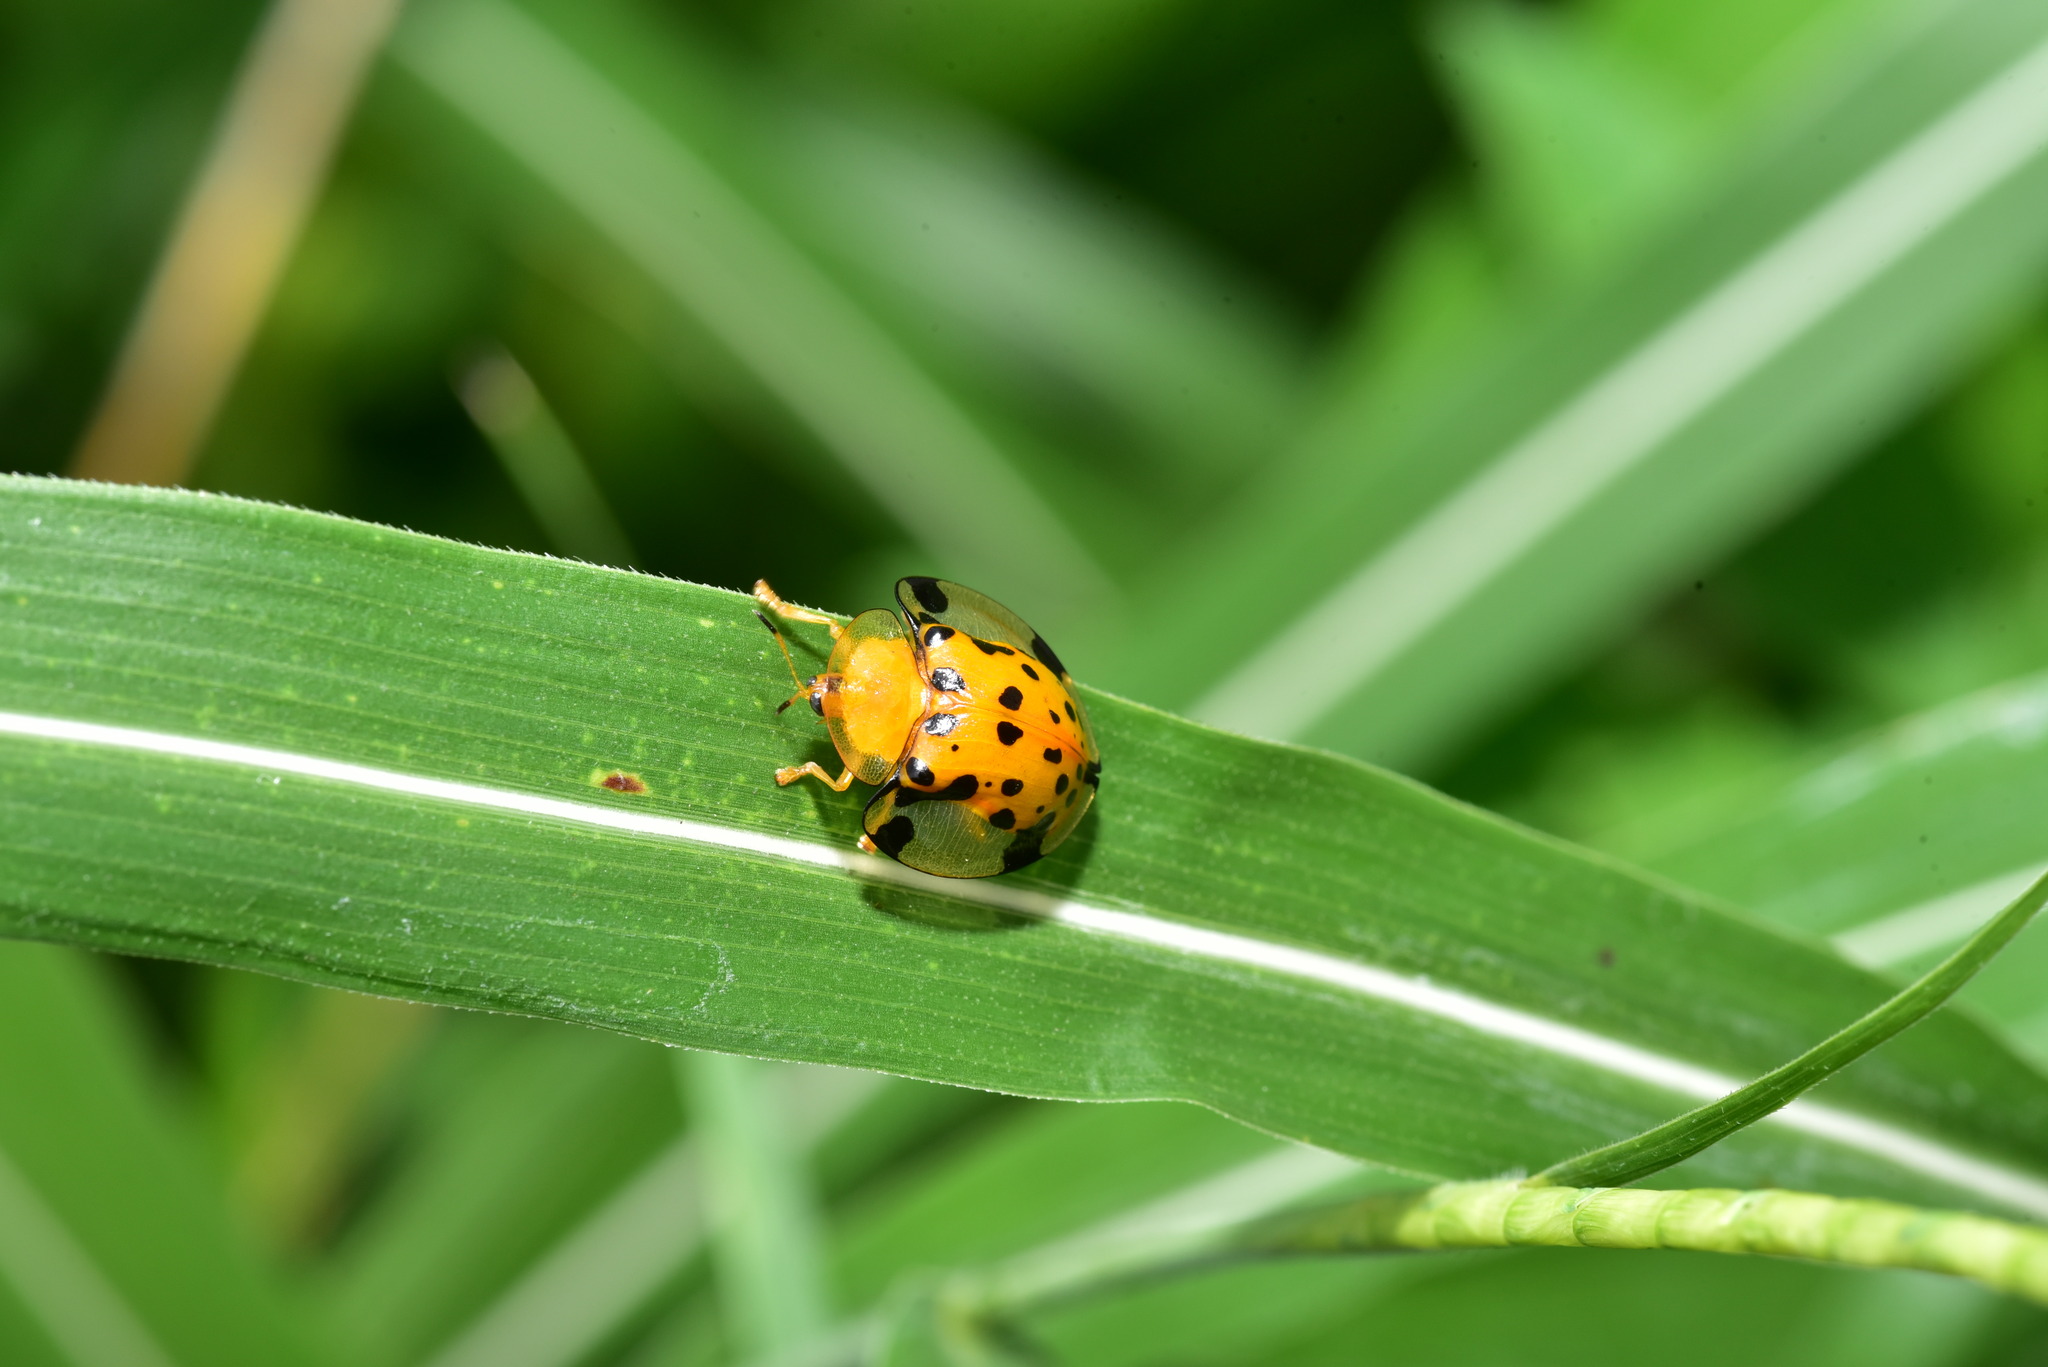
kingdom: Animalia
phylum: Arthropoda
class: Insecta
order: Coleoptera
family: Chrysomelidae
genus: Aspidimorpha
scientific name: Aspidimorpha miliaris
